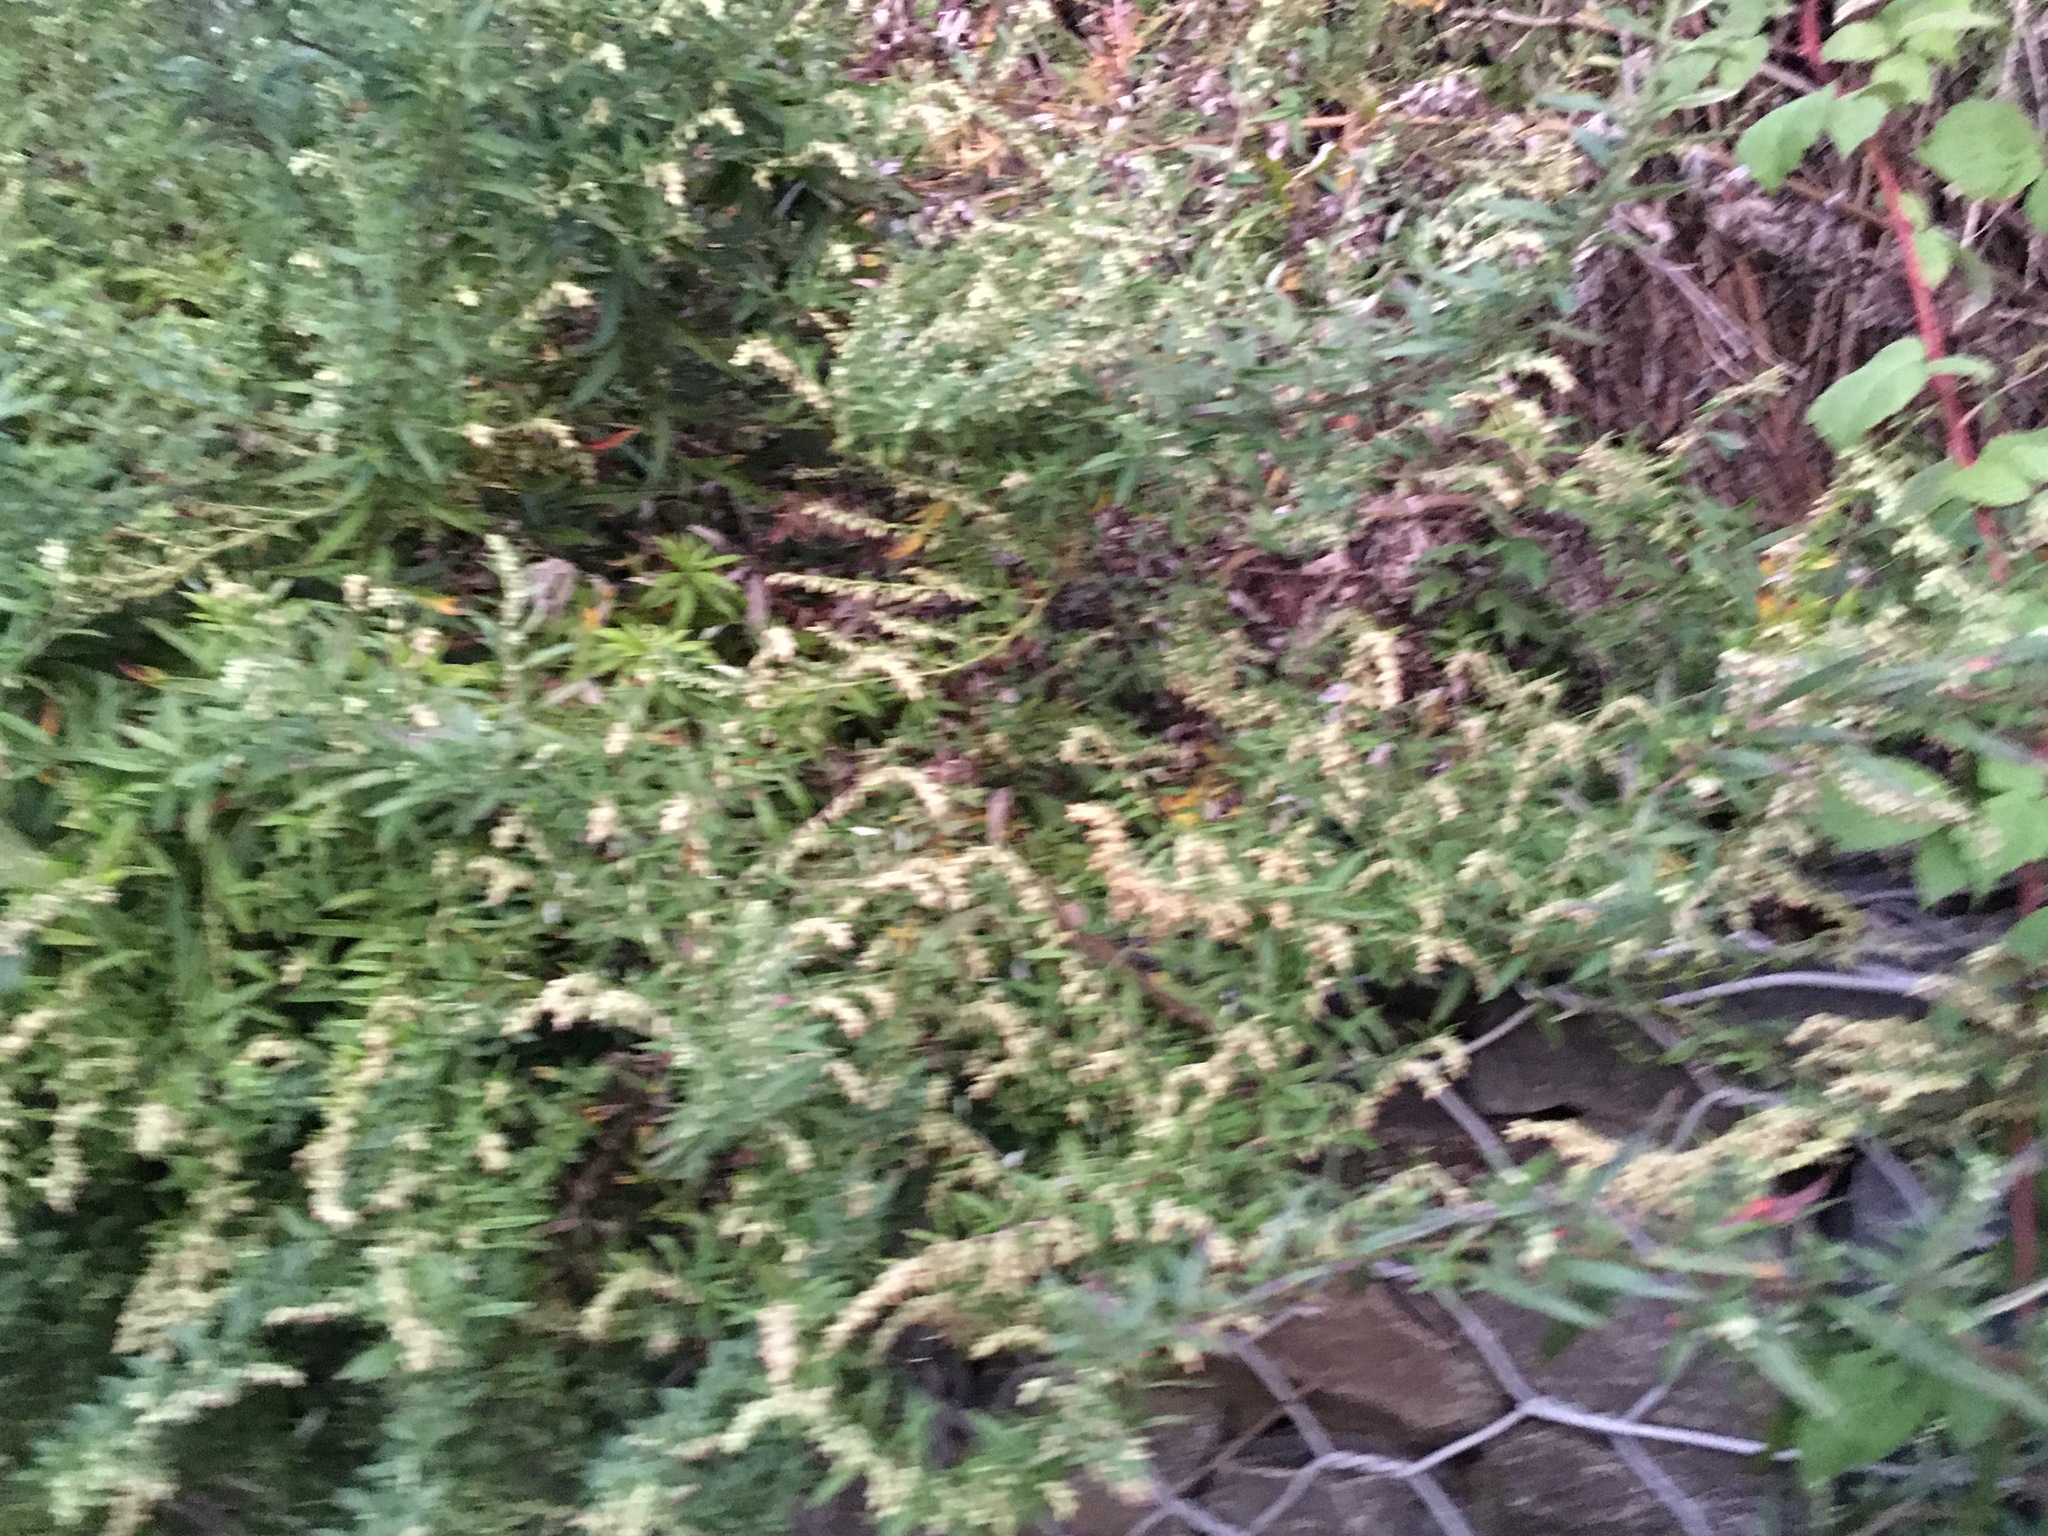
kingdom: Plantae
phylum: Tracheophyta
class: Magnoliopsida
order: Asterales
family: Asteraceae
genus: Artemisia
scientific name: Artemisia vulgaris
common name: Mugwort
